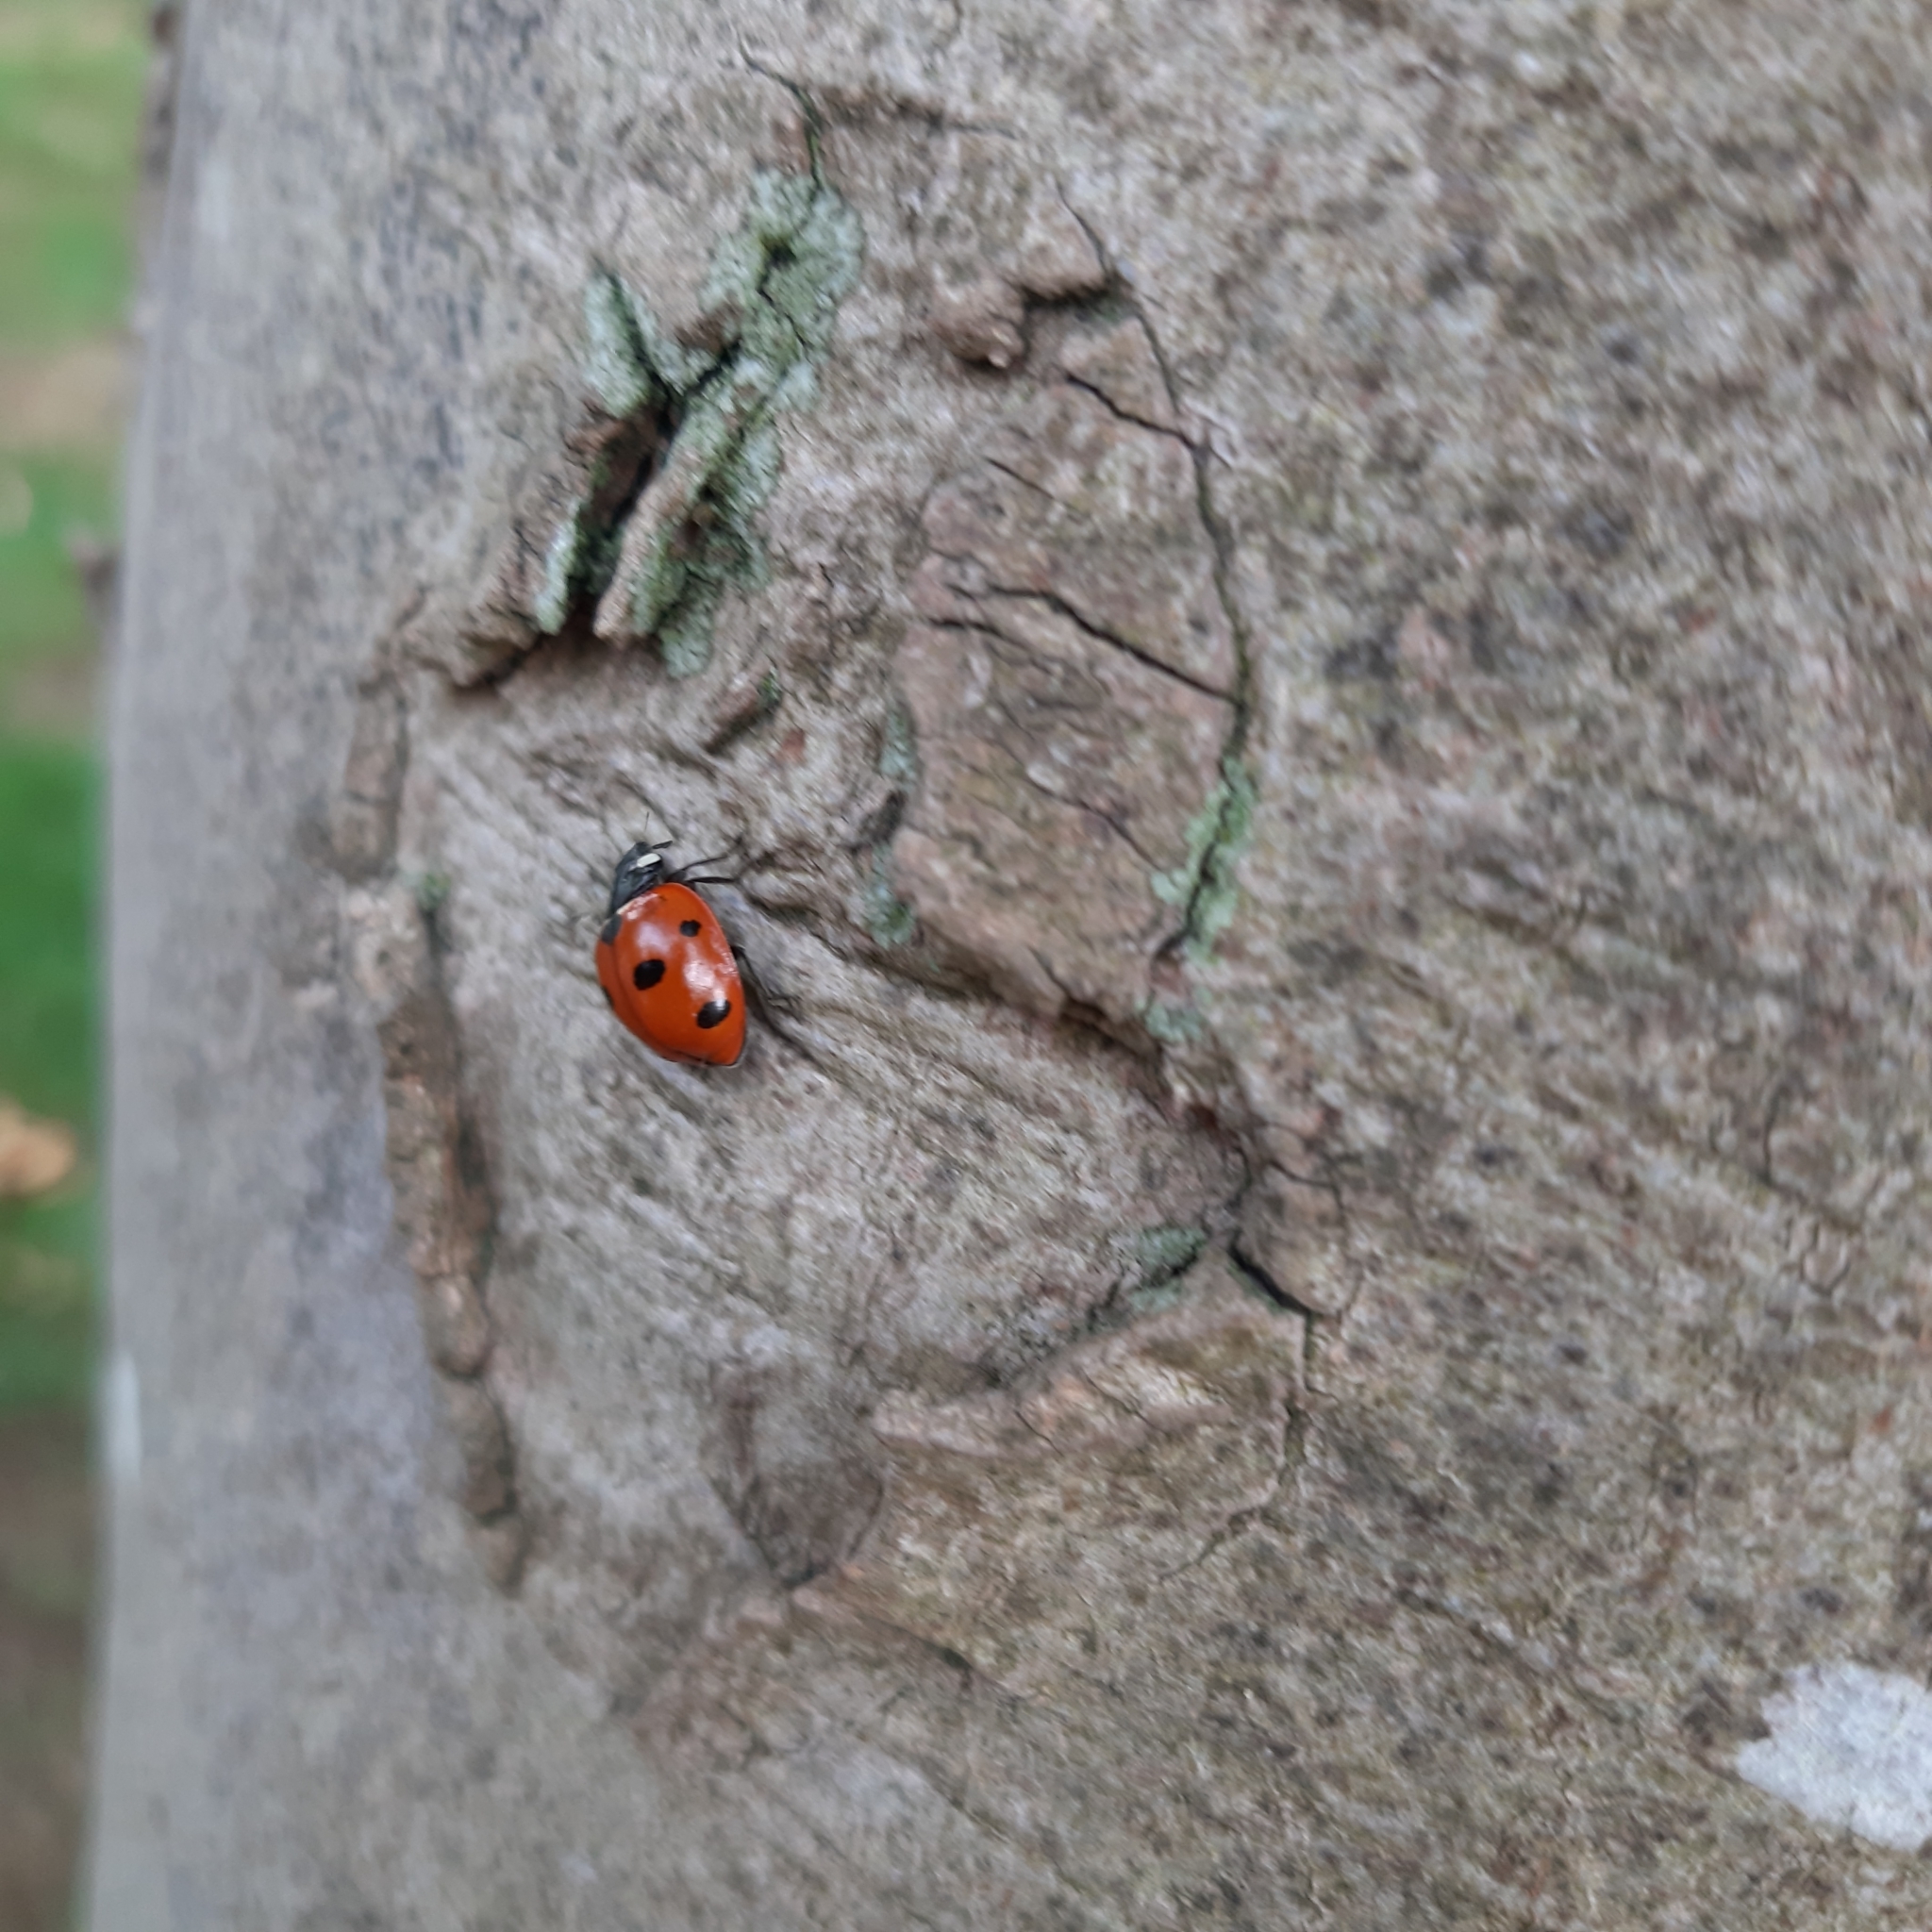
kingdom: Animalia
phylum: Arthropoda
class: Insecta
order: Coleoptera
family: Coccinellidae
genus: Coccinella
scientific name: Coccinella septempunctata
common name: Sevenspotted lady beetle
